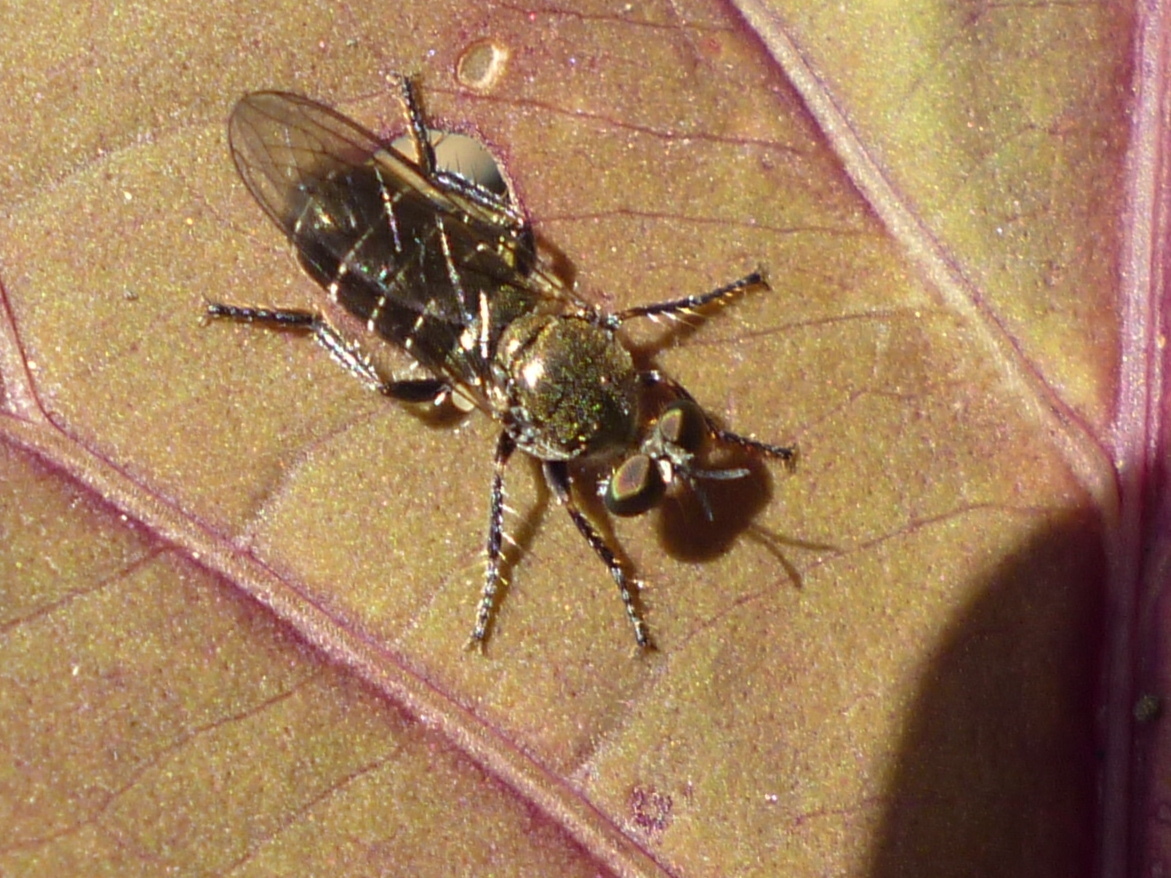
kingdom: Animalia
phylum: Arthropoda
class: Insecta
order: Diptera
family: Asilidae
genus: Atomosia
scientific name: Atomosia puella
